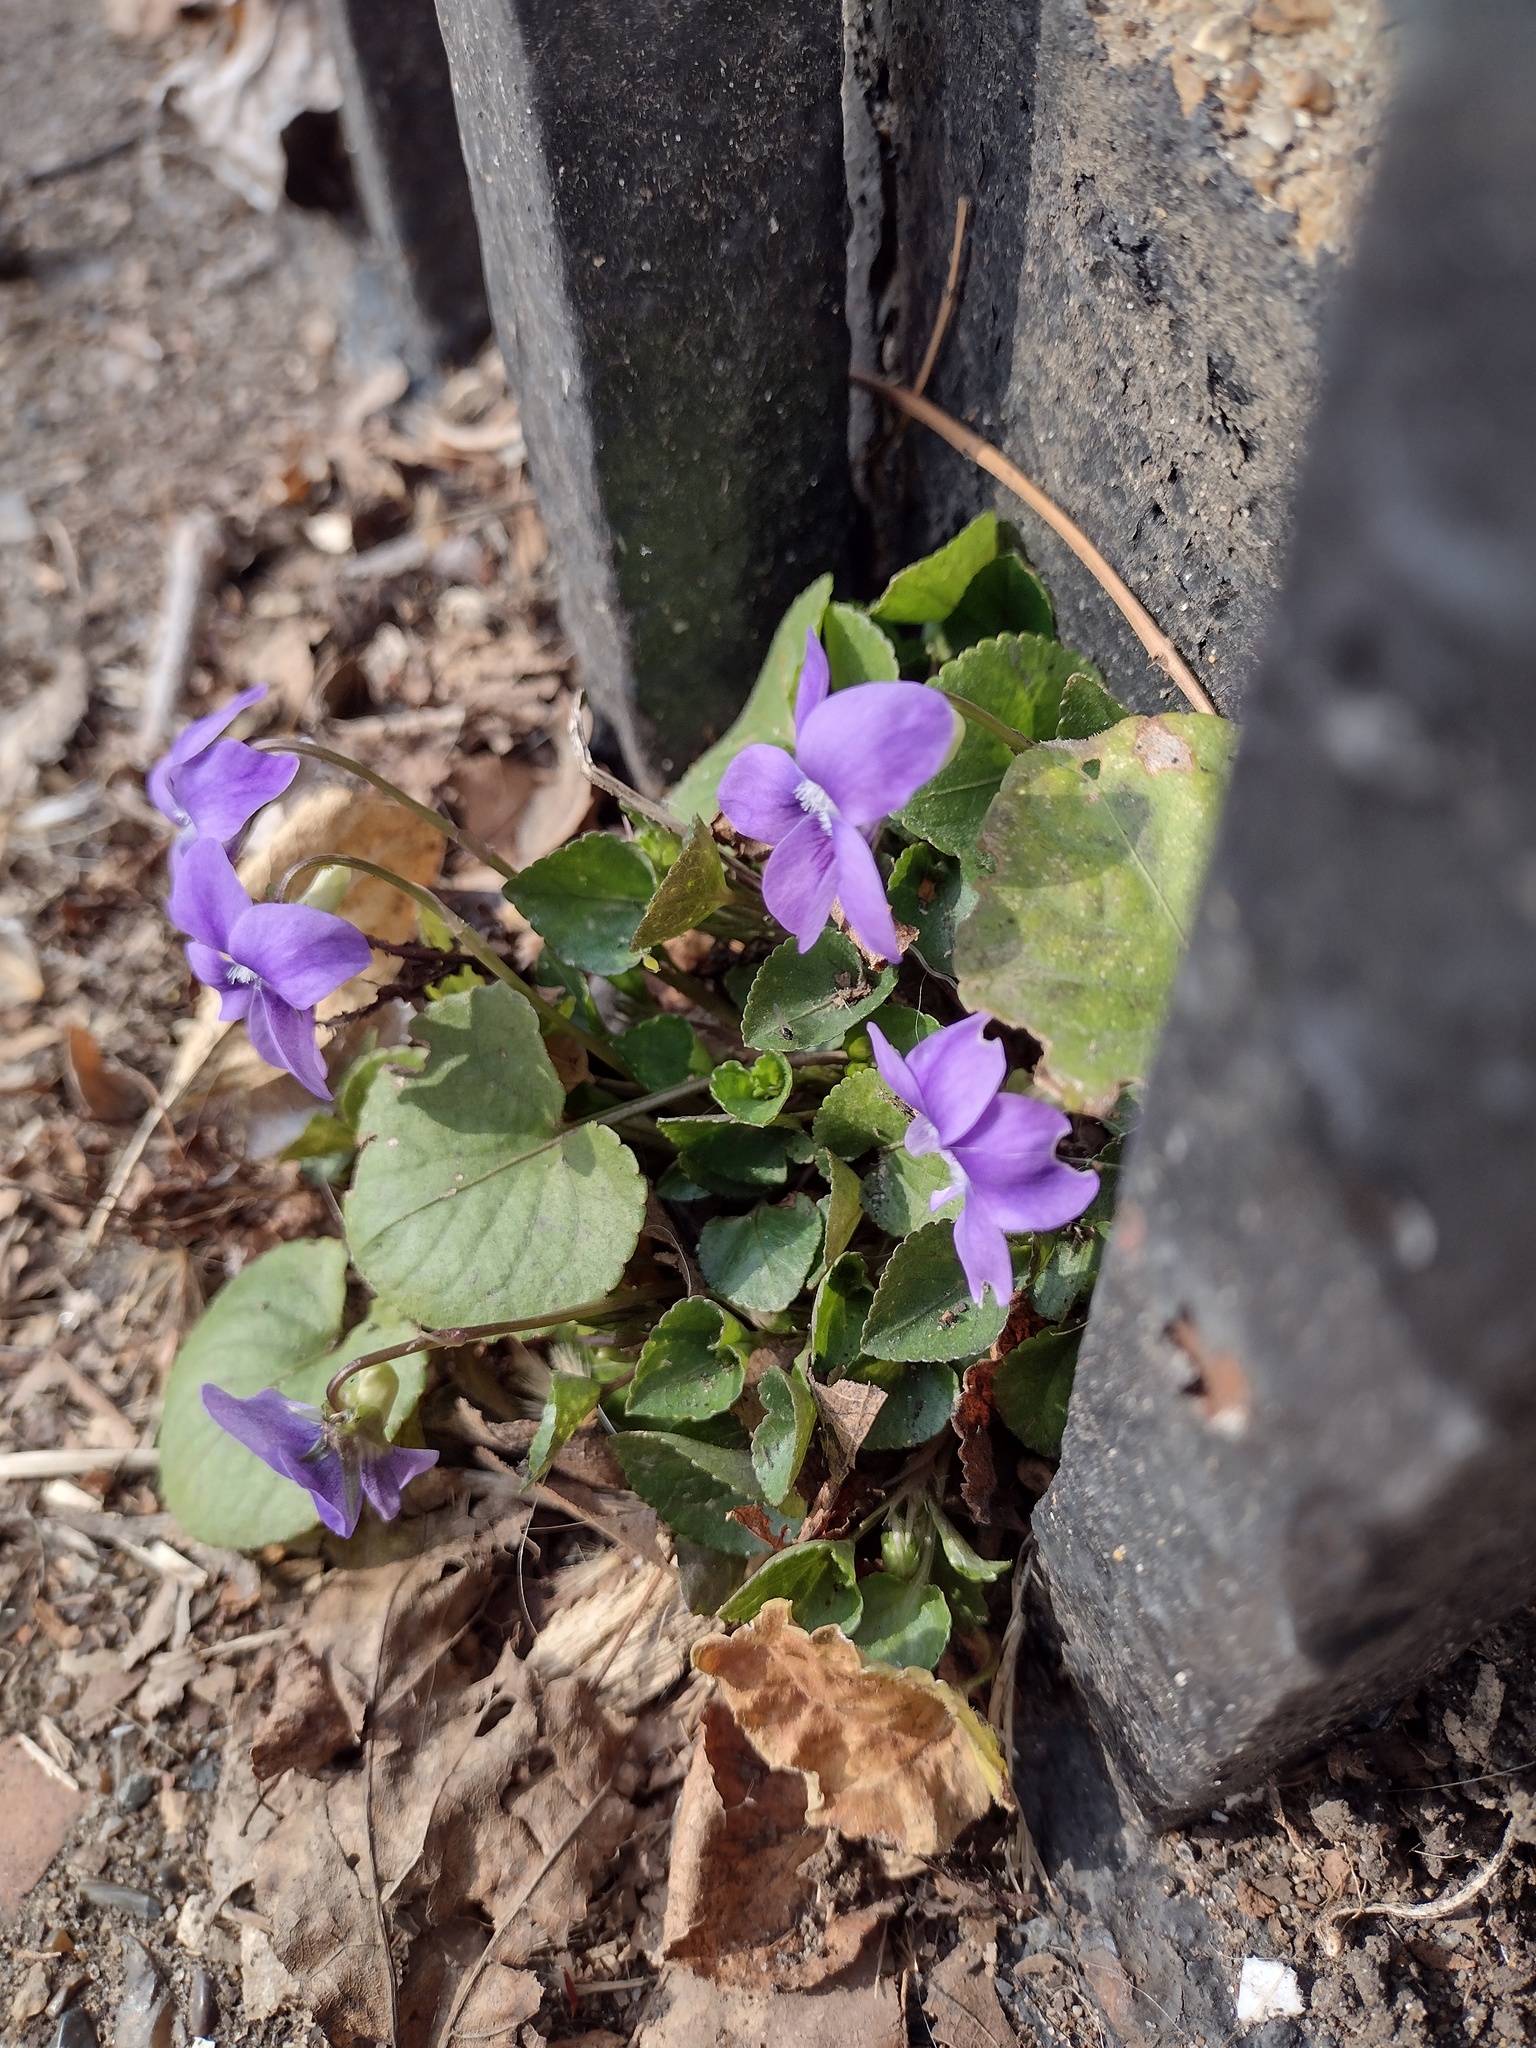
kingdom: Plantae
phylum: Tracheophyta
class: Magnoliopsida
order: Malpighiales
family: Violaceae
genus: Viola
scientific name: Viola riviniana
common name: Common dog-violet
